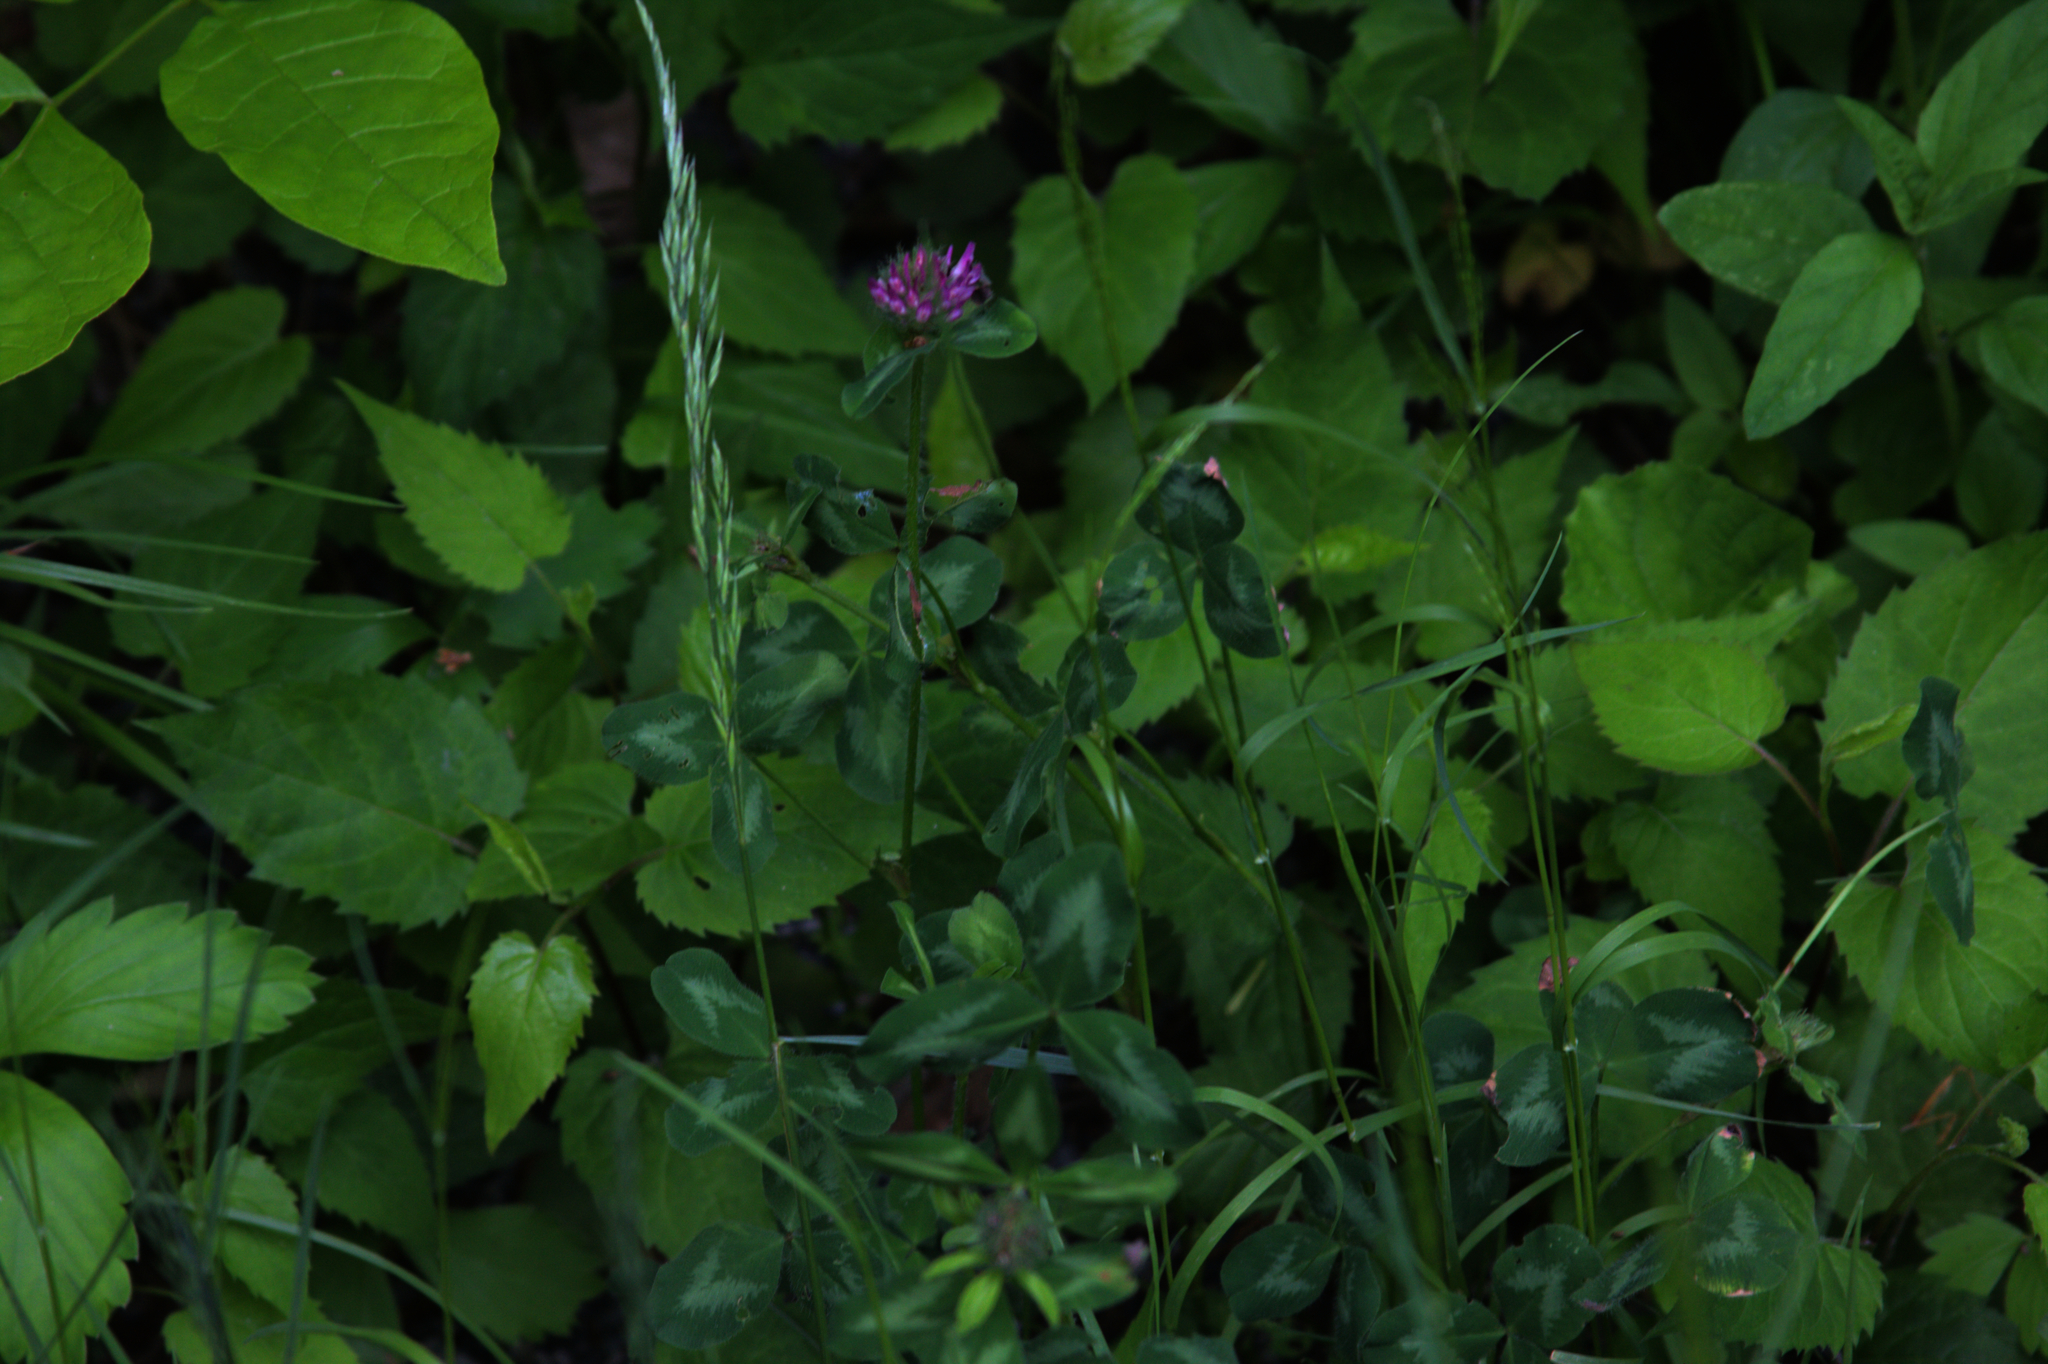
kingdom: Plantae
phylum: Tracheophyta
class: Magnoliopsida
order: Fabales
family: Fabaceae
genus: Trifolium
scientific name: Trifolium pratense
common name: Red clover
